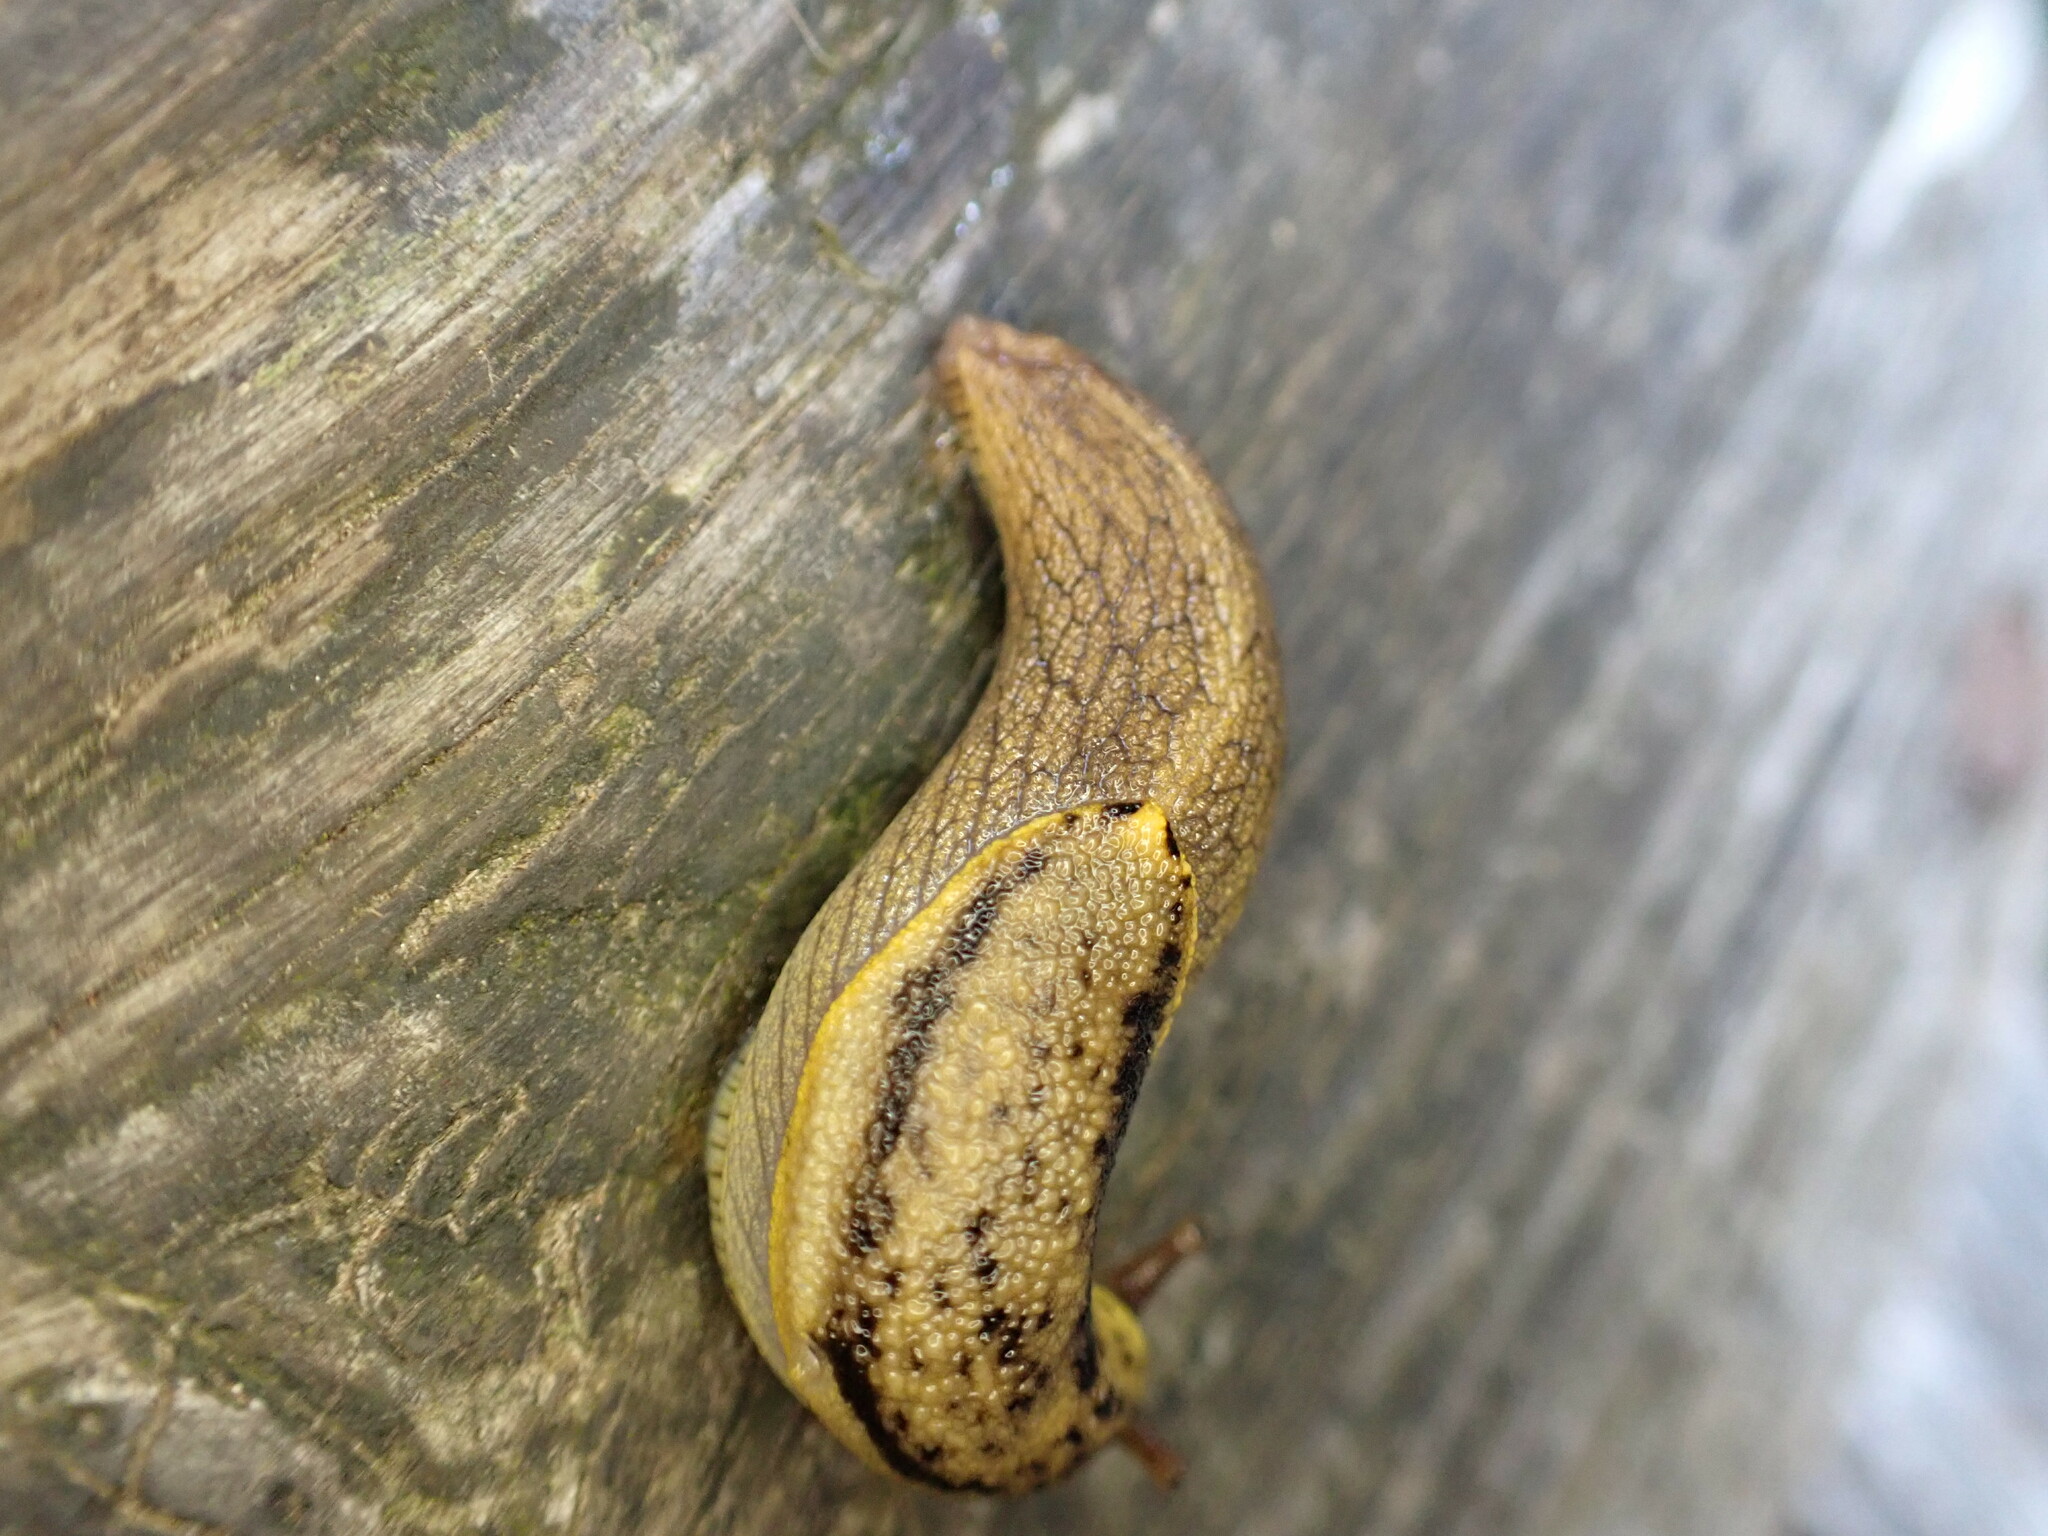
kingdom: Animalia
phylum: Mollusca
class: Gastropoda
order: Stylommatophora
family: Ariolimacidae
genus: Prophysaon
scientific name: Prophysaon foliolatum
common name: Yellow-bordered taildropper
